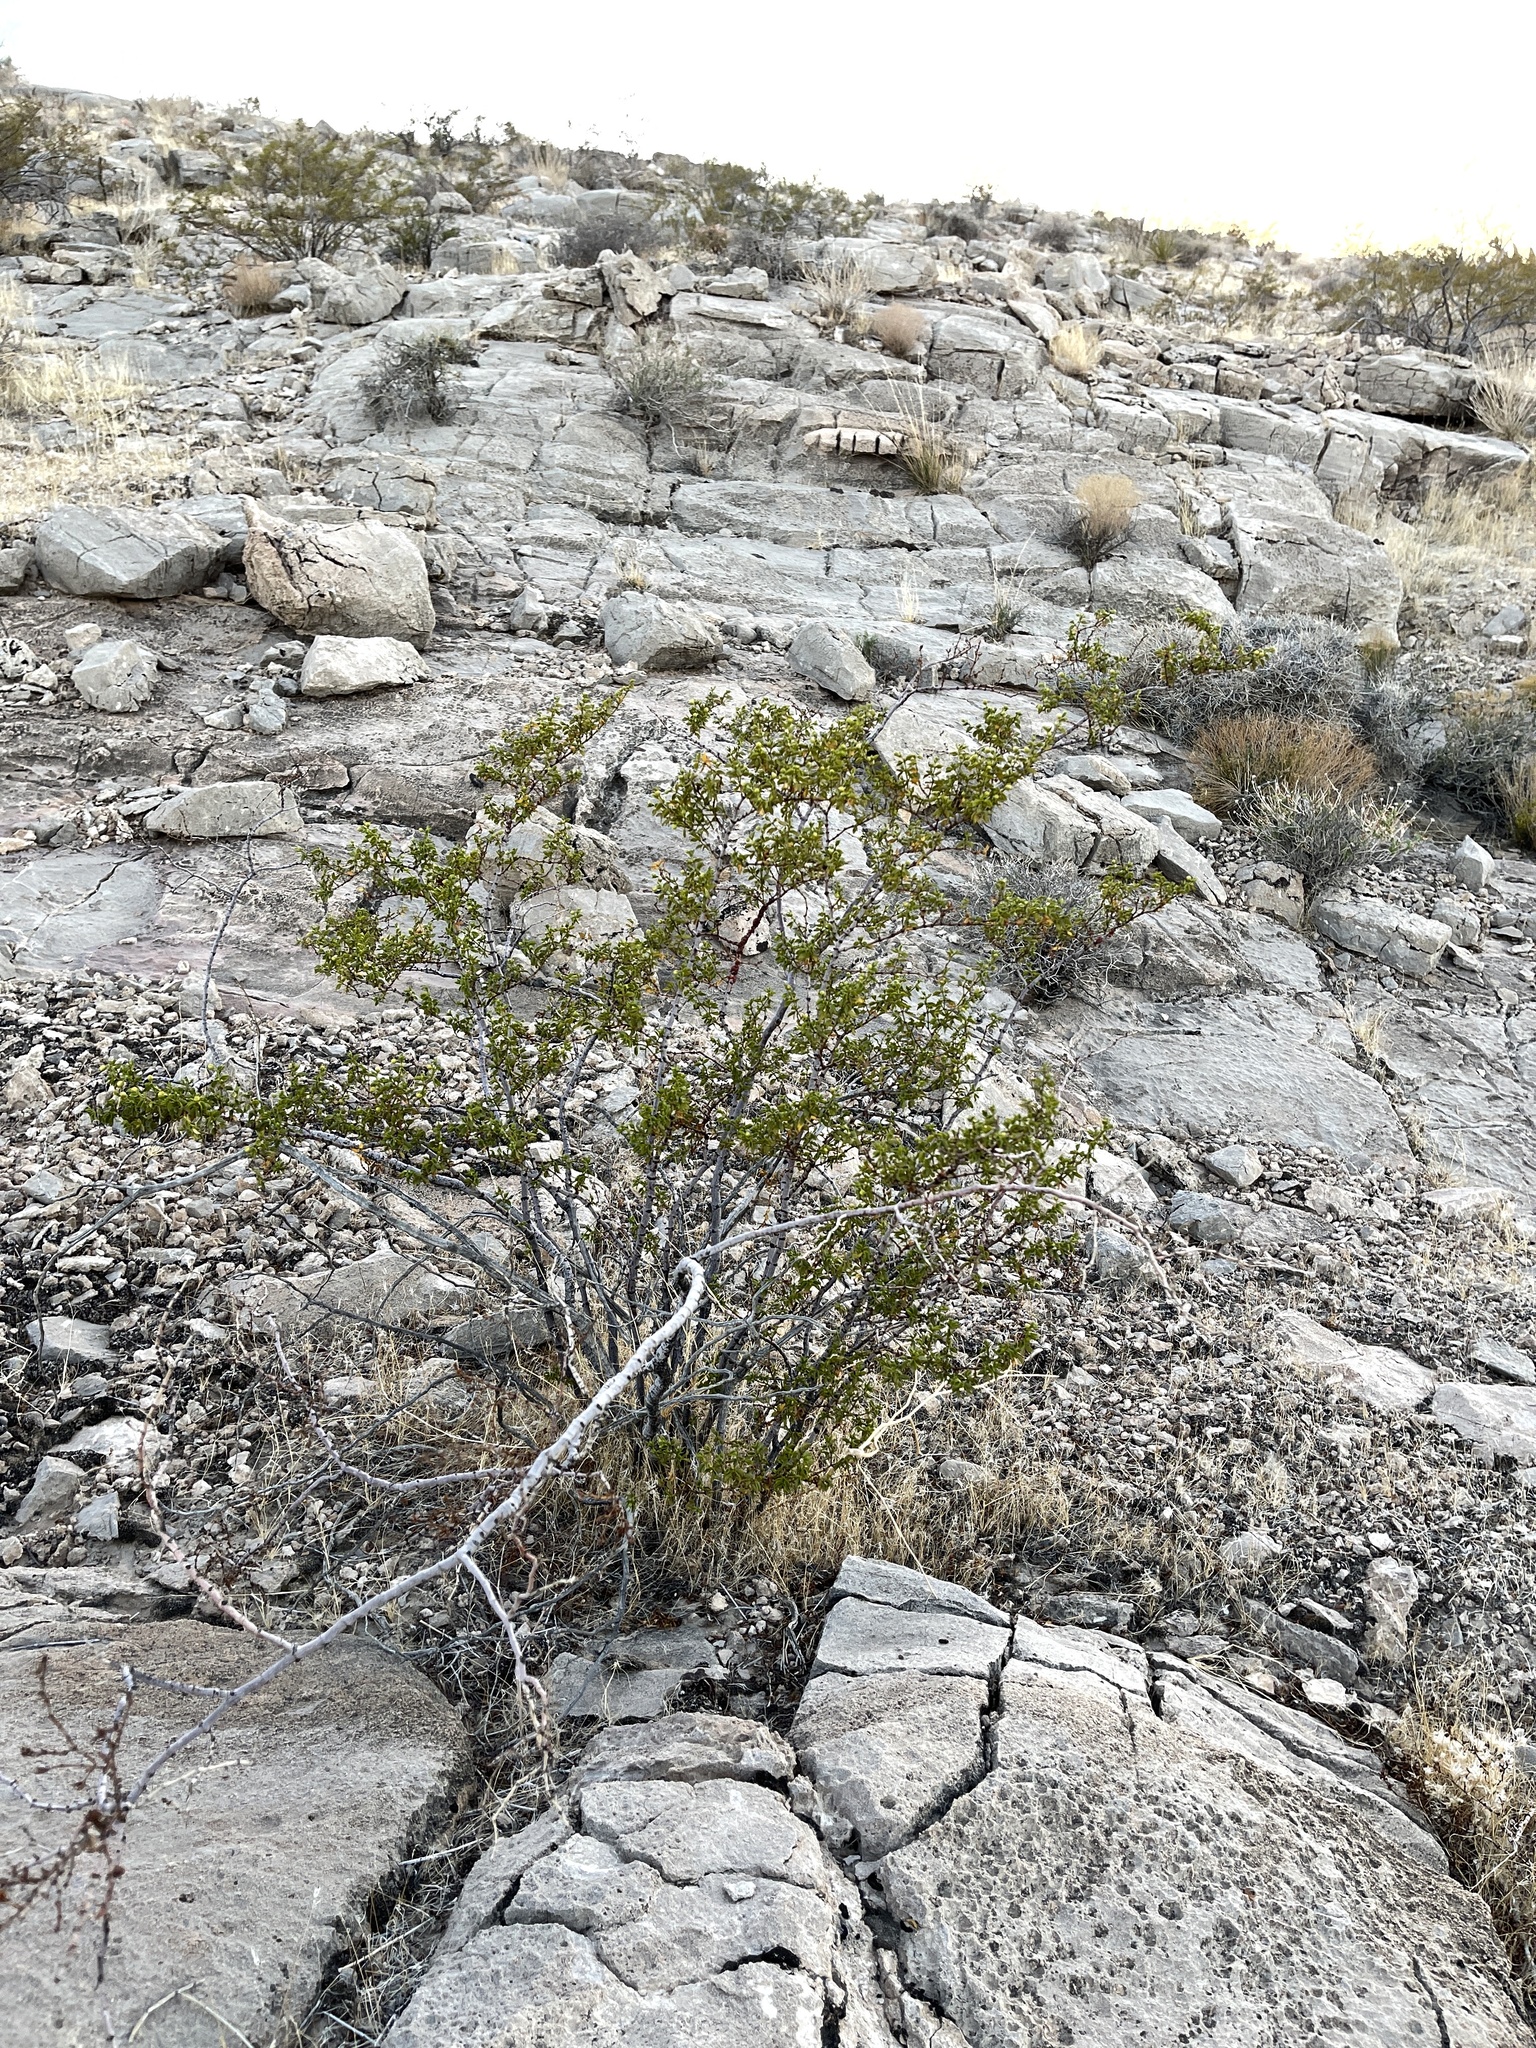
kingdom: Plantae
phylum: Tracheophyta
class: Magnoliopsida
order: Zygophyllales
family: Zygophyllaceae
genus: Larrea
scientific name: Larrea tridentata
